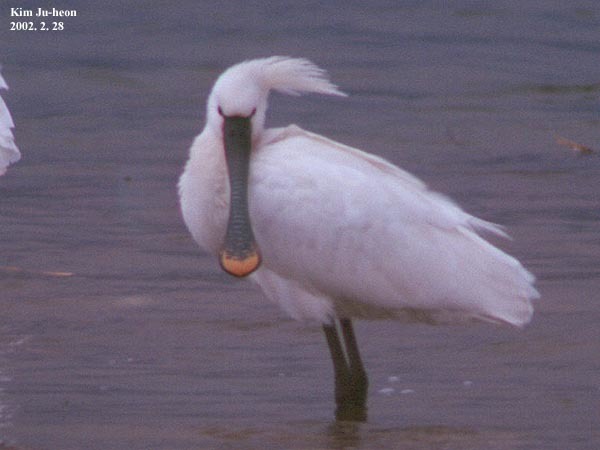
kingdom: Animalia
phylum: Chordata
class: Aves
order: Pelecaniformes
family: Threskiornithidae
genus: Platalea
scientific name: Platalea leucorodia
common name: Eurasian spoonbill
